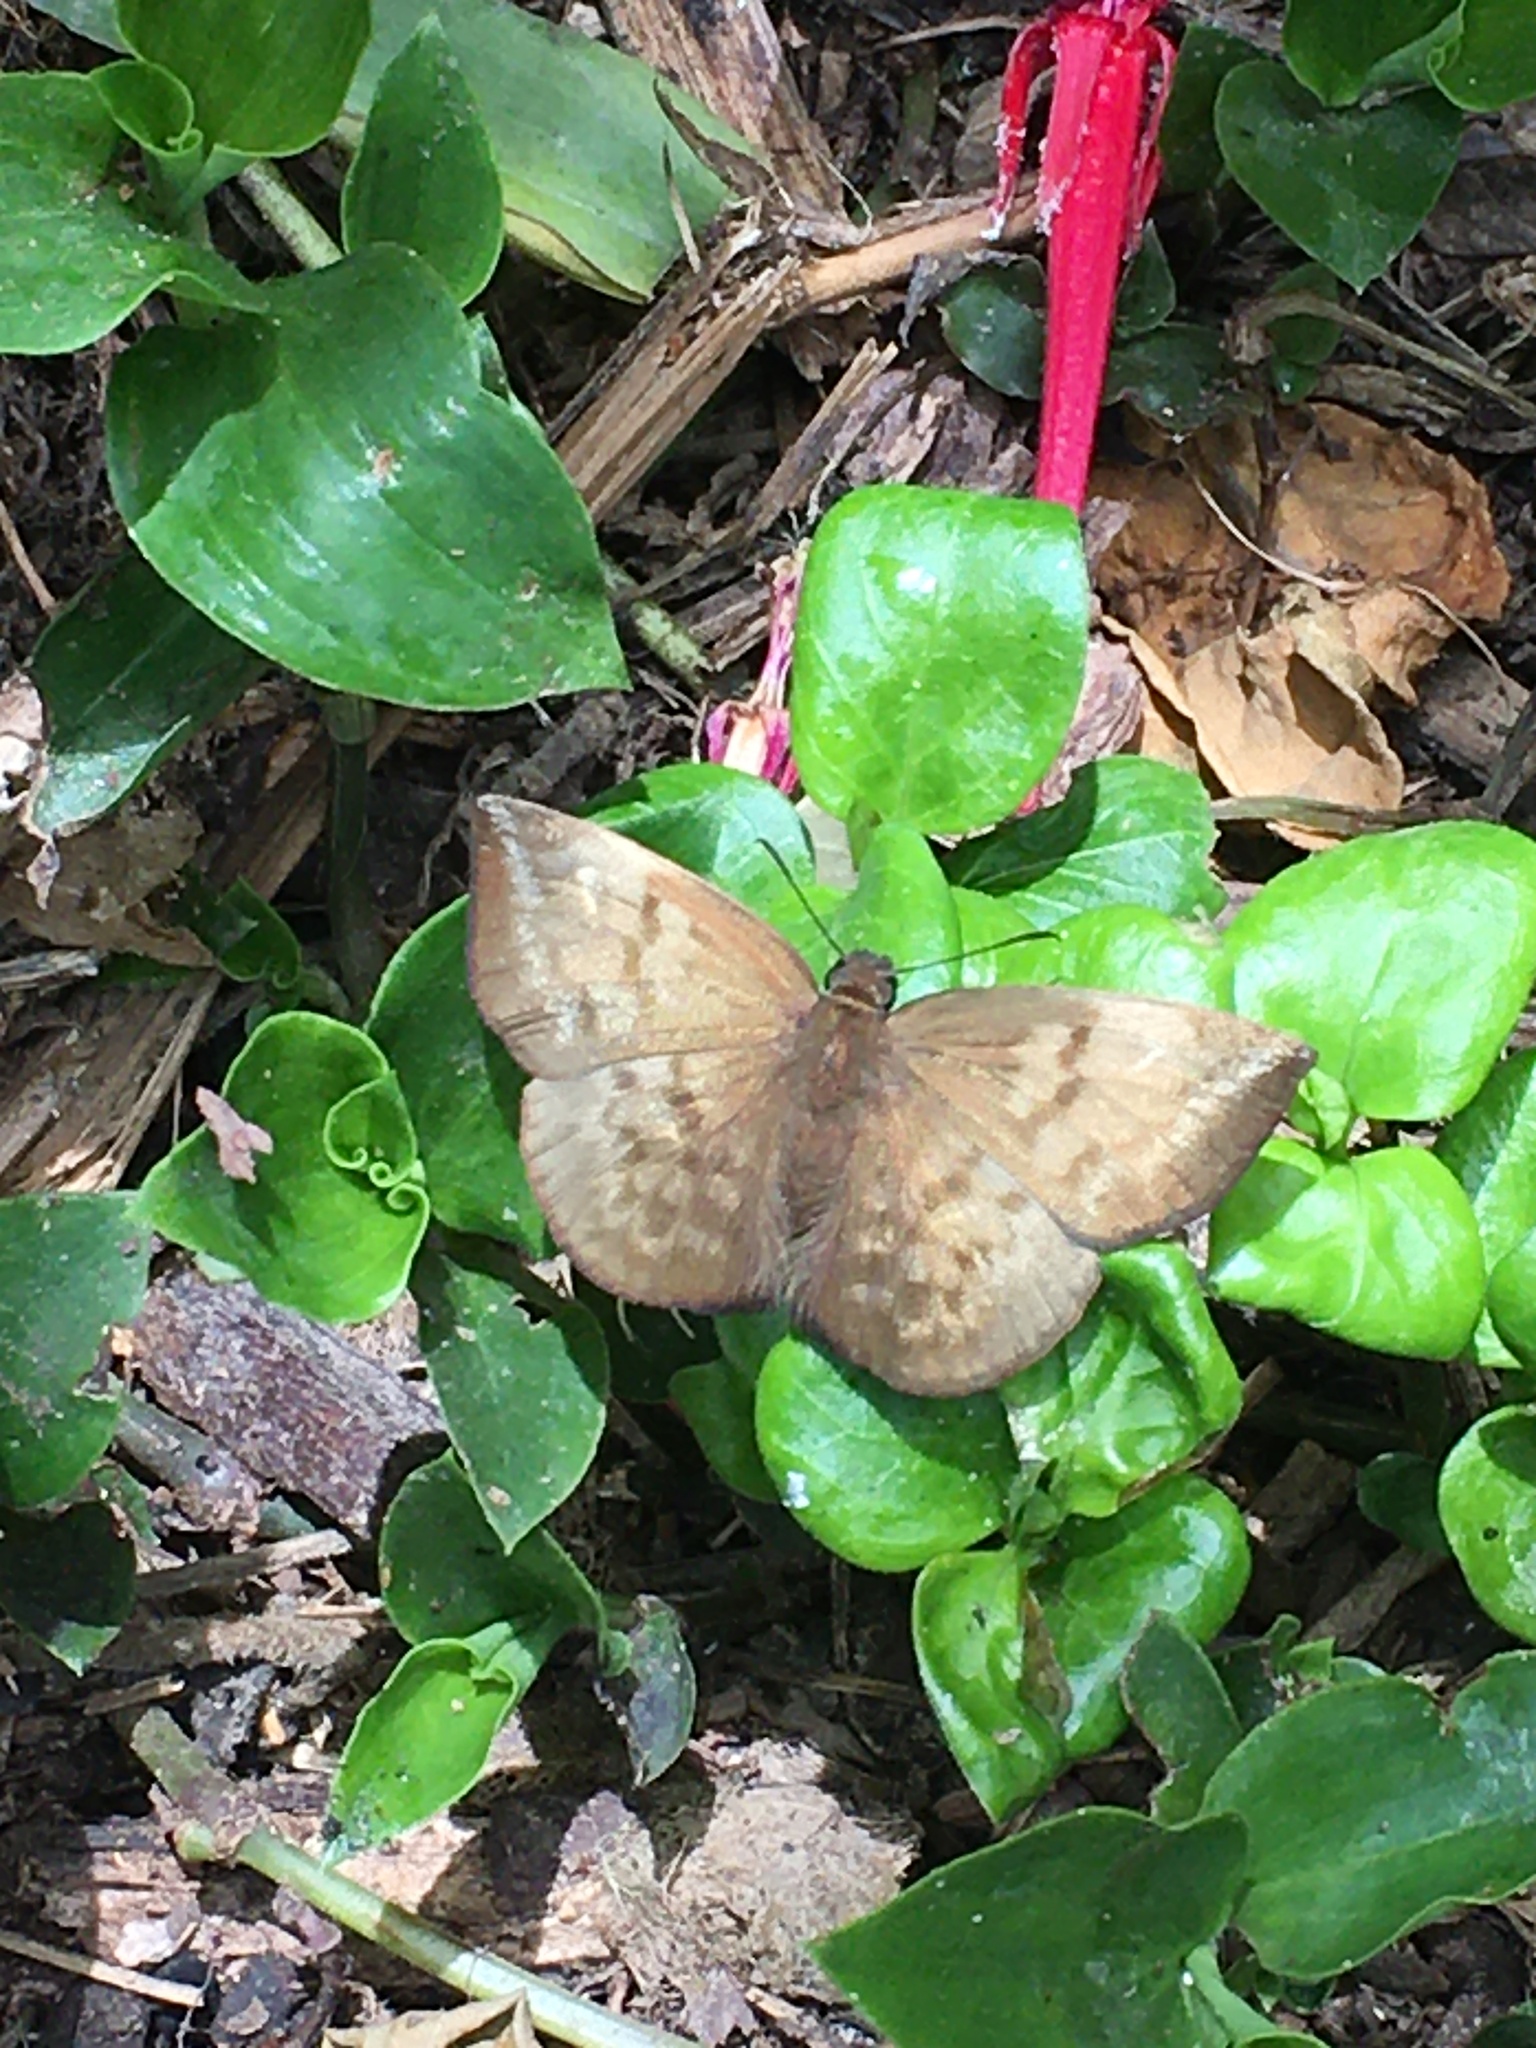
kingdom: Animalia
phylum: Arthropoda
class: Insecta
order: Lepidoptera
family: Hesperiidae
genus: Achlyodes
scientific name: Achlyodes pallida
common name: Pale sicklewing
